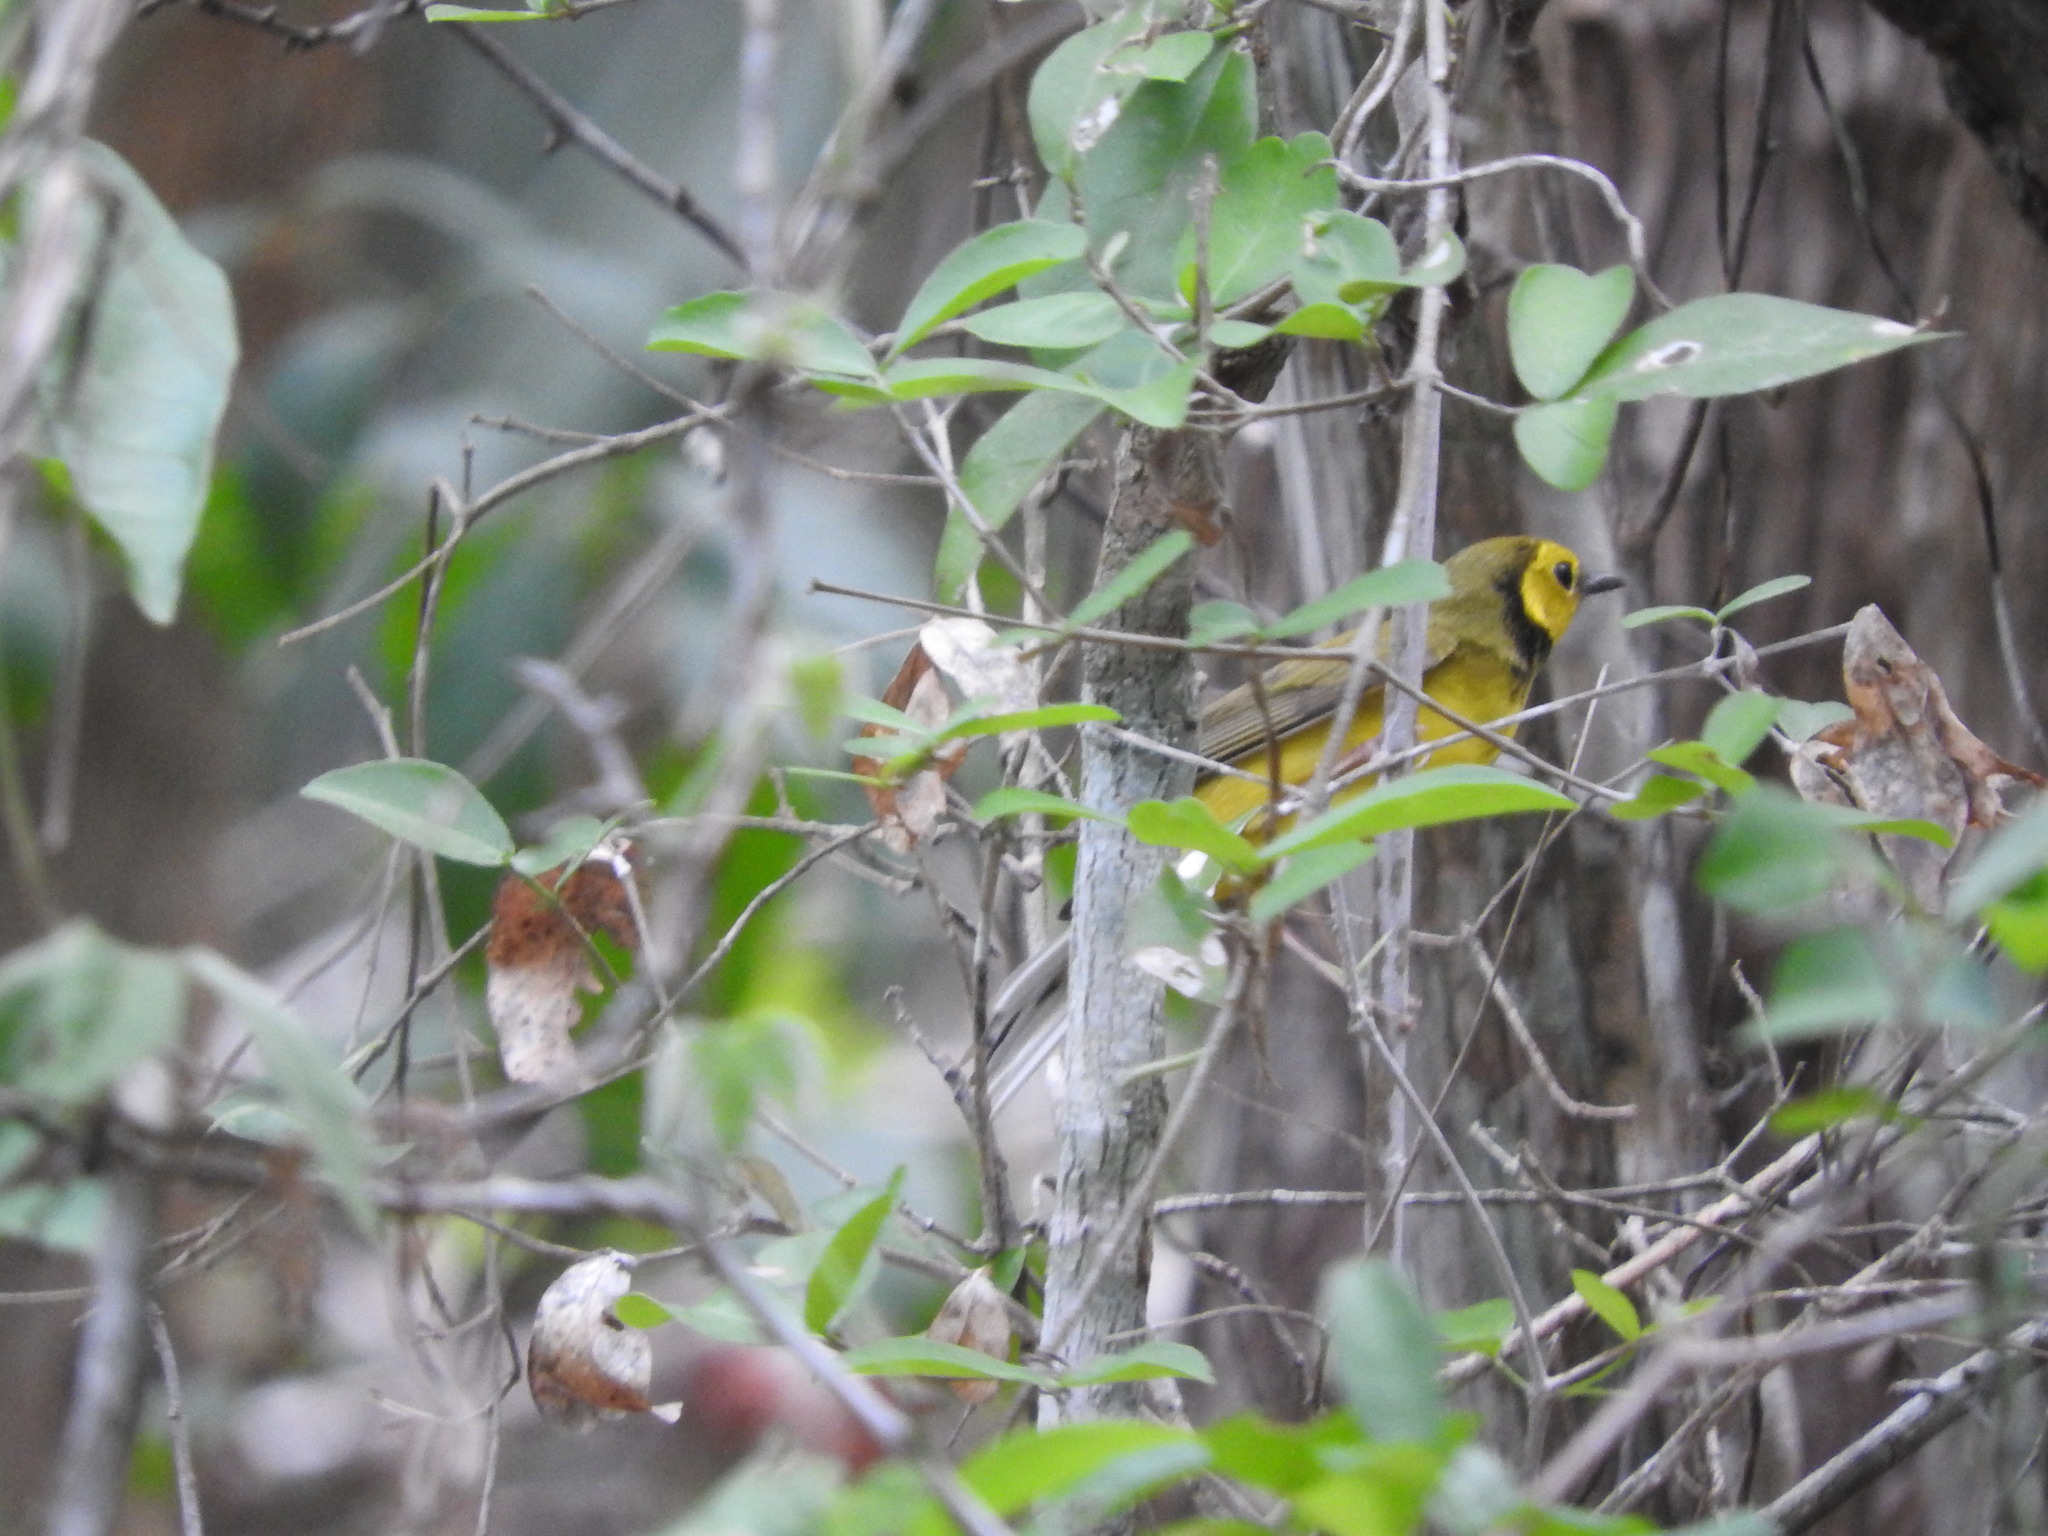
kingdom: Animalia
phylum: Chordata
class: Aves
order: Passeriformes
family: Parulidae
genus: Setophaga
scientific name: Setophaga citrina
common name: Hooded warbler
